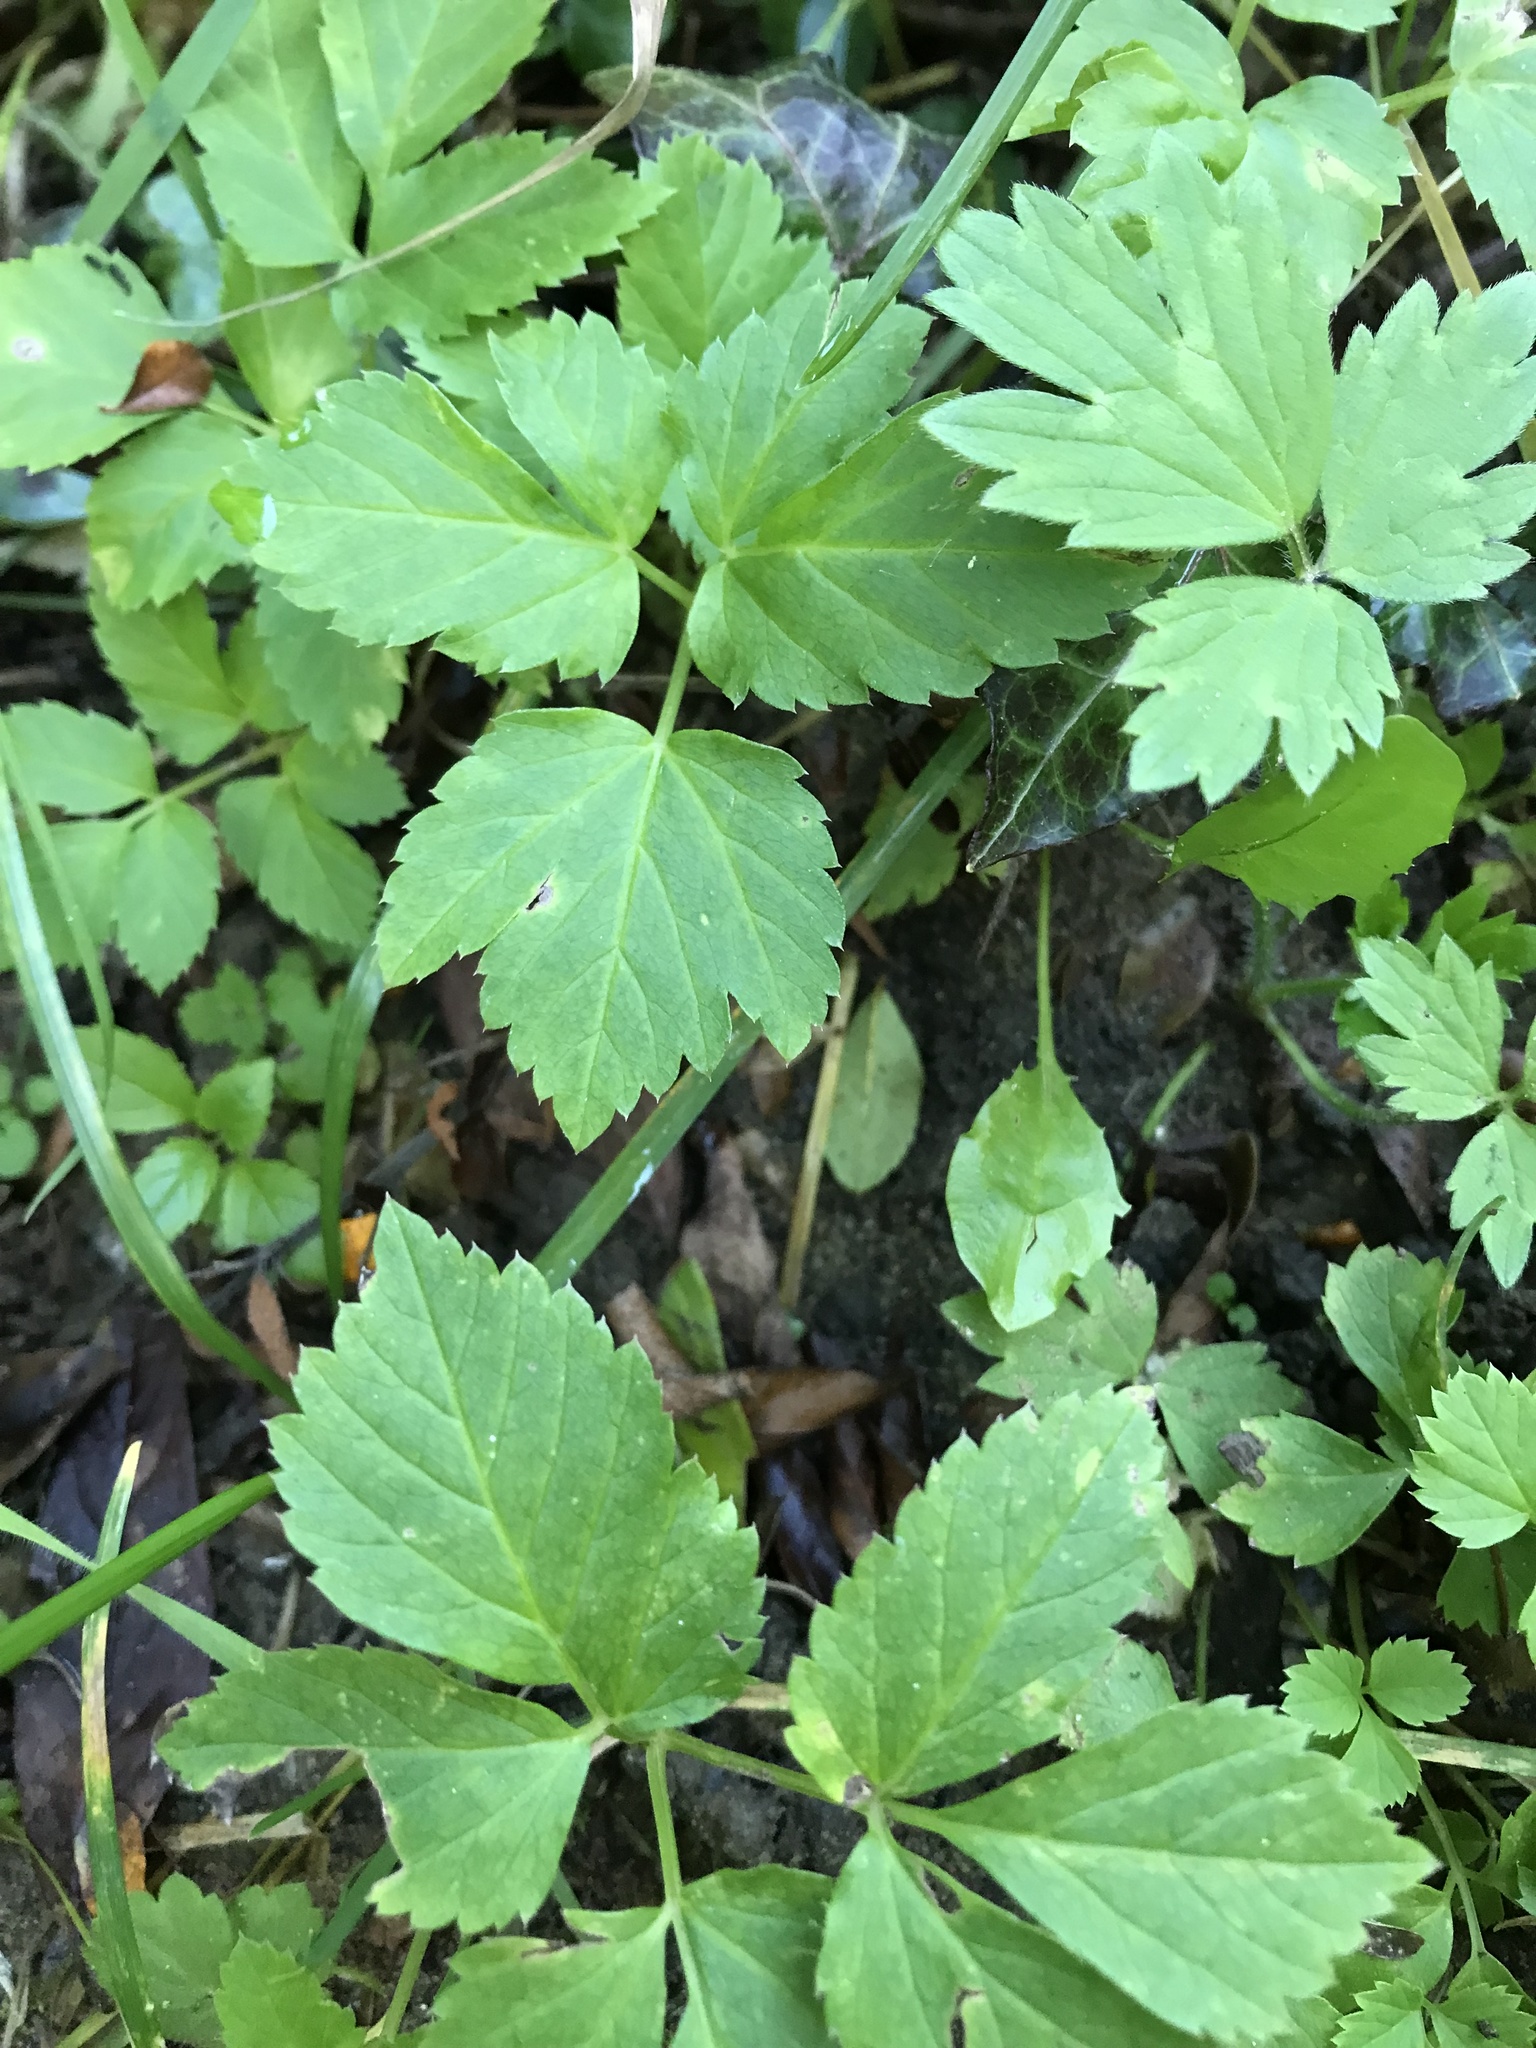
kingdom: Plantae
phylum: Tracheophyta
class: Magnoliopsida
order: Apiales
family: Apiaceae
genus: Aegopodium
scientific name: Aegopodium podagraria
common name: Ground-elder
